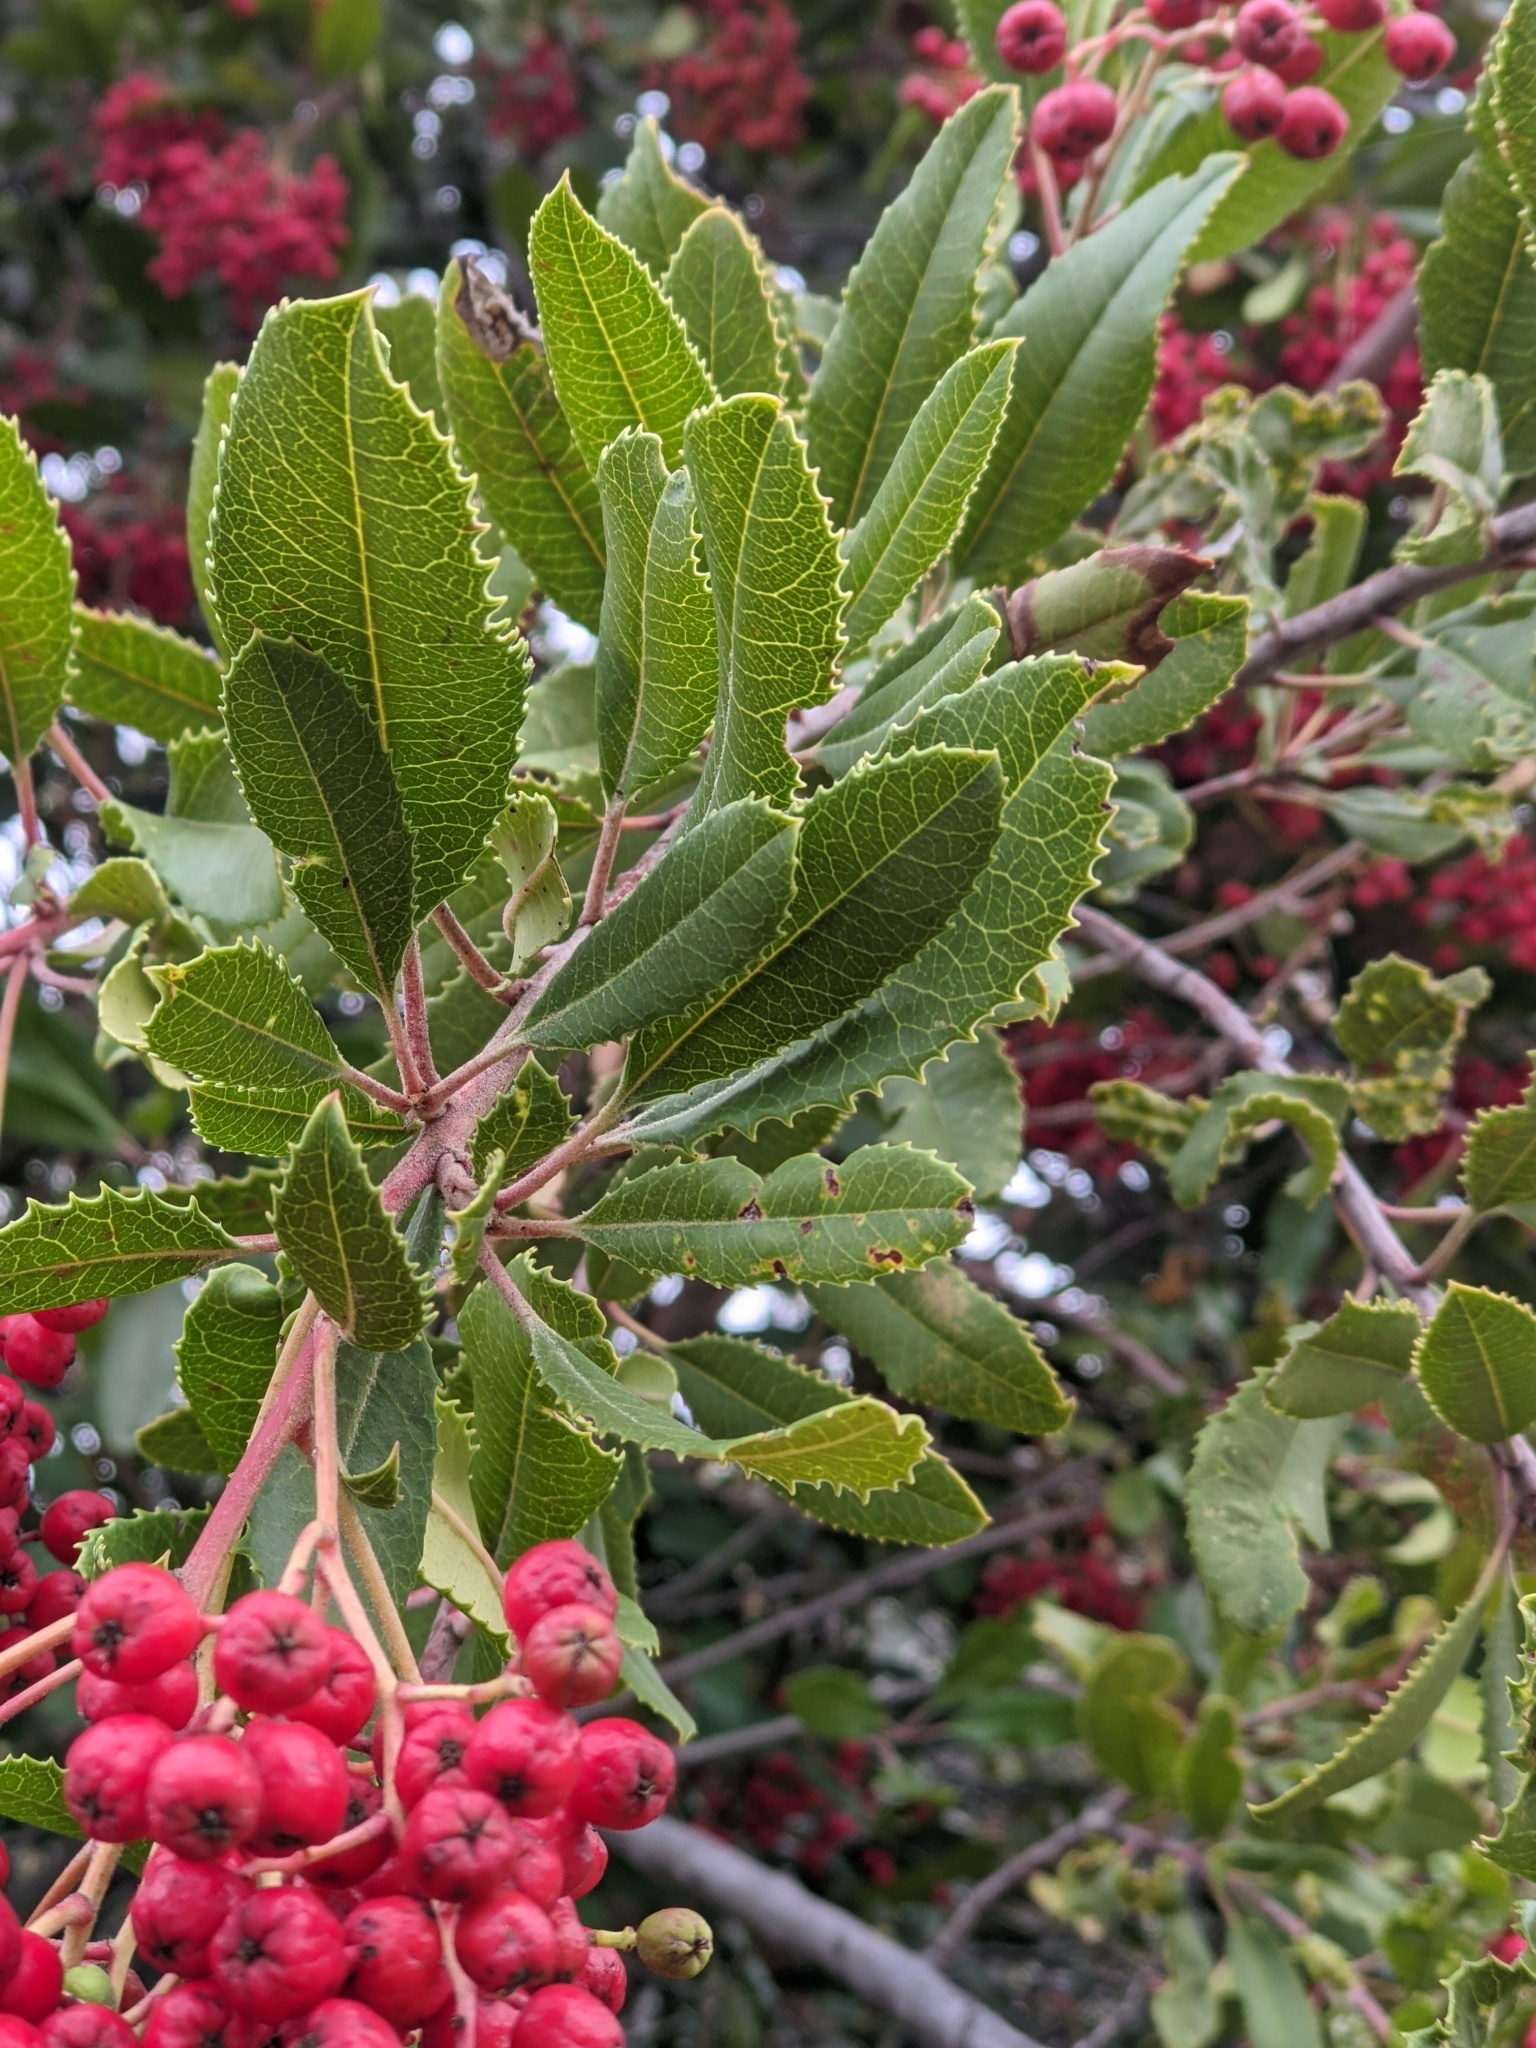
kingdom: Plantae
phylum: Tracheophyta
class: Magnoliopsida
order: Rosales
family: Rosaceae
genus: Heteromeles
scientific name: Heteromeles arbutifolia
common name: California-holly
